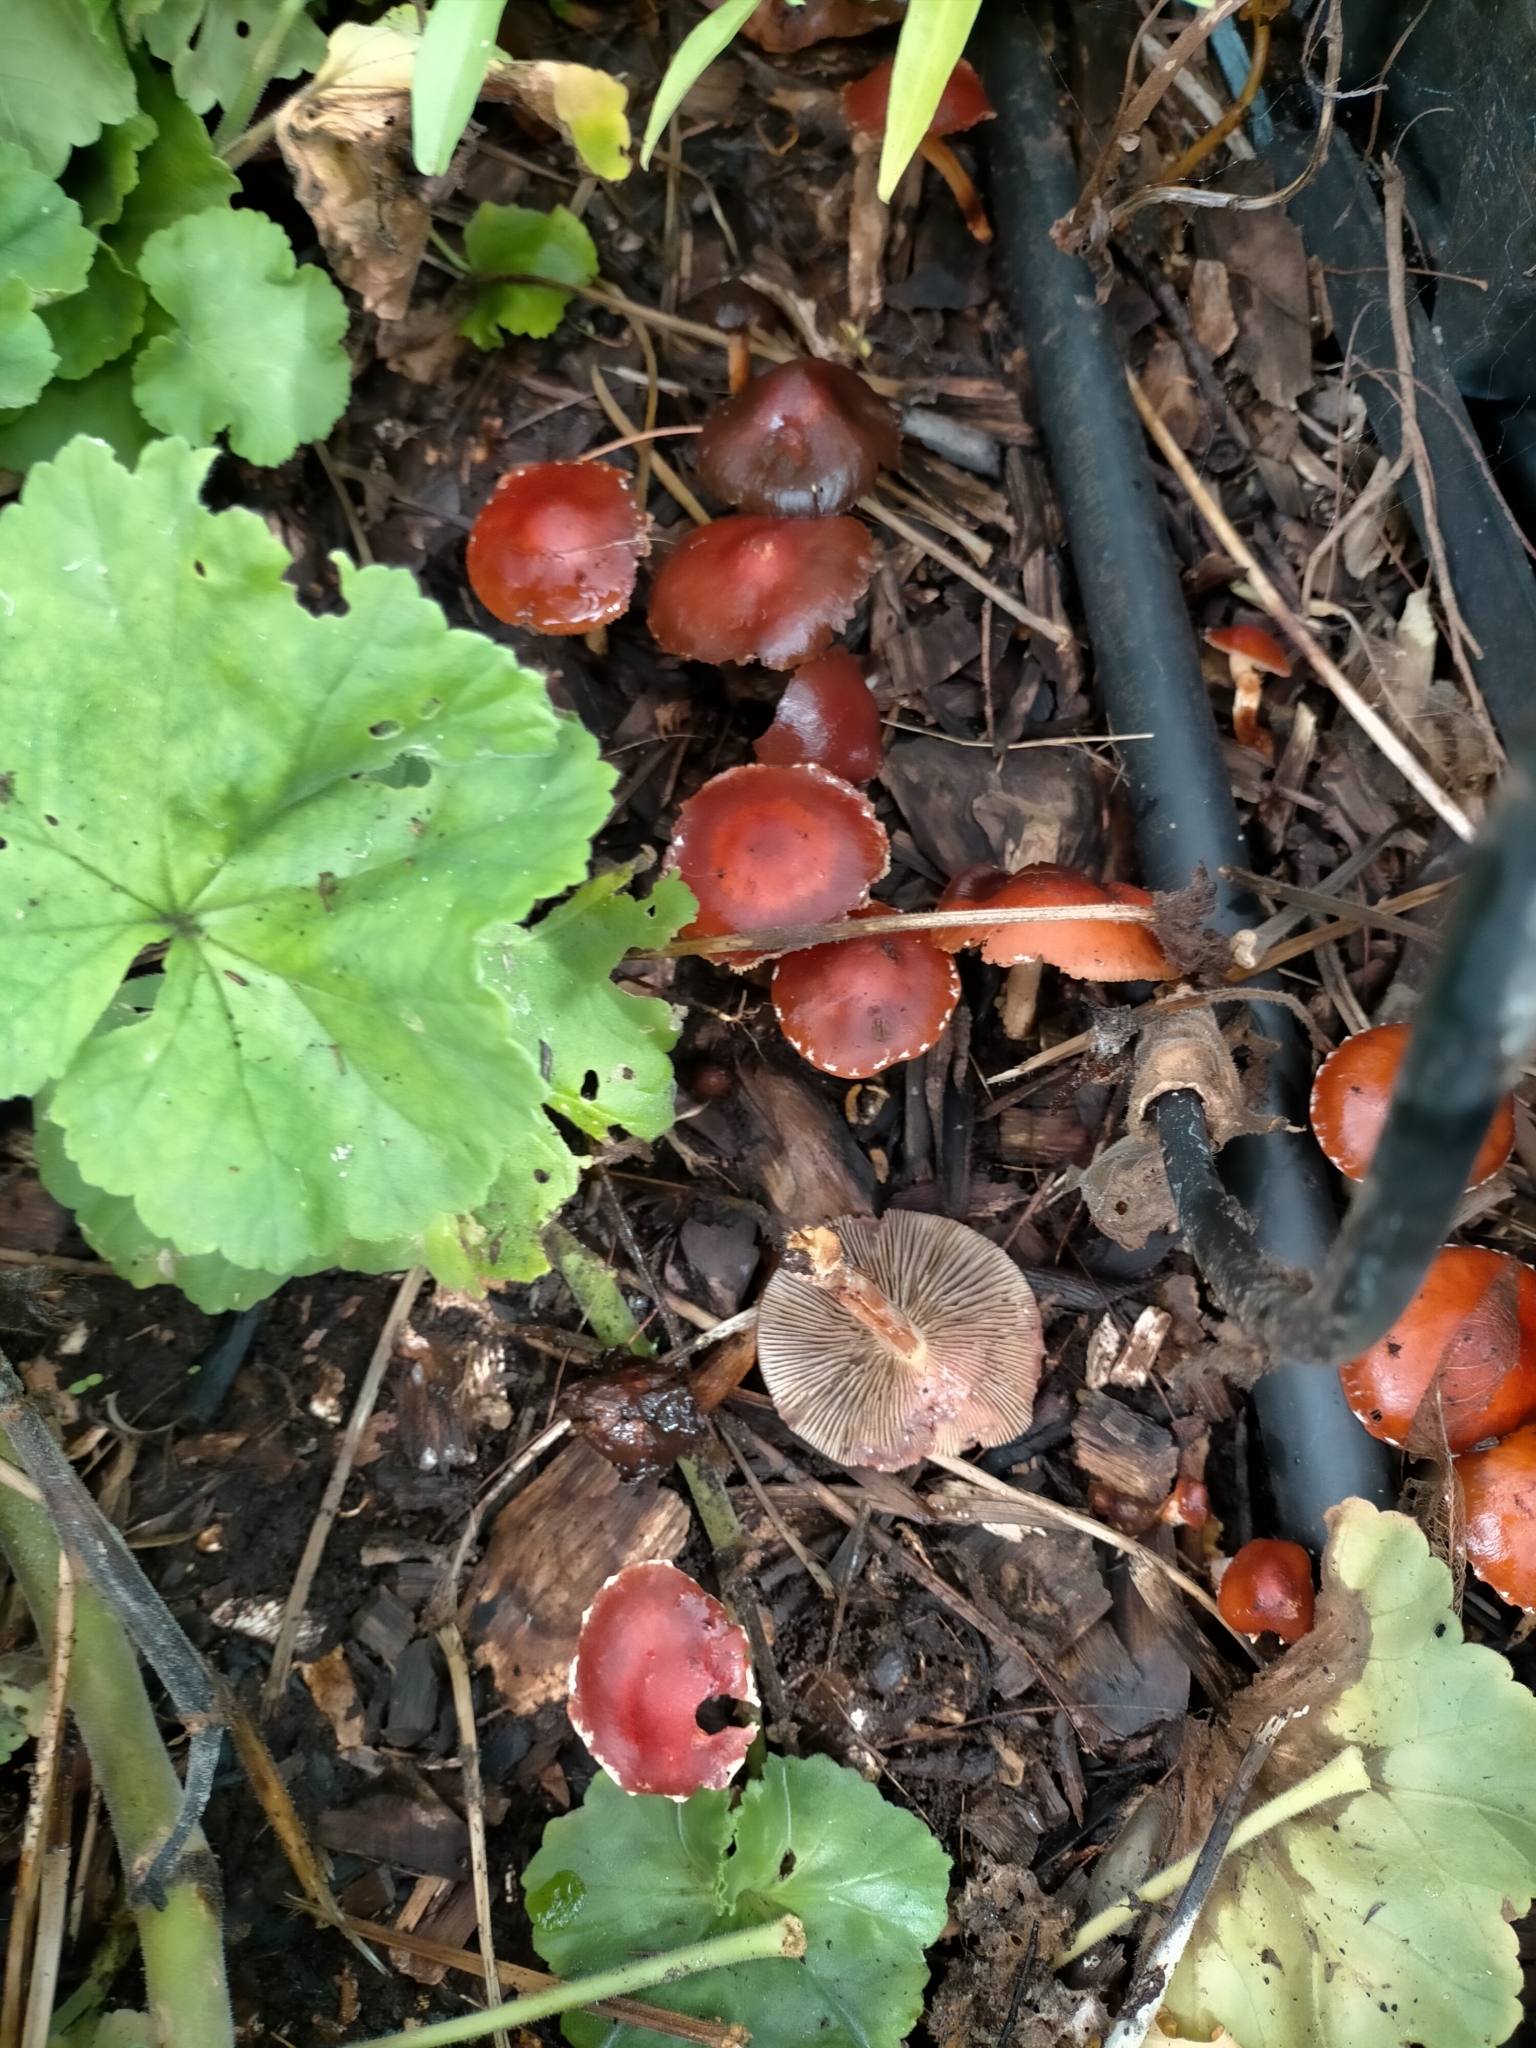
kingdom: Fungi
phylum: Basidiomycota
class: Agaricomycetes
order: Agaricales
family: Strophariaceae
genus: Leratiomyces
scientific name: Leratiomyces ceres
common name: Redlead roundhead
